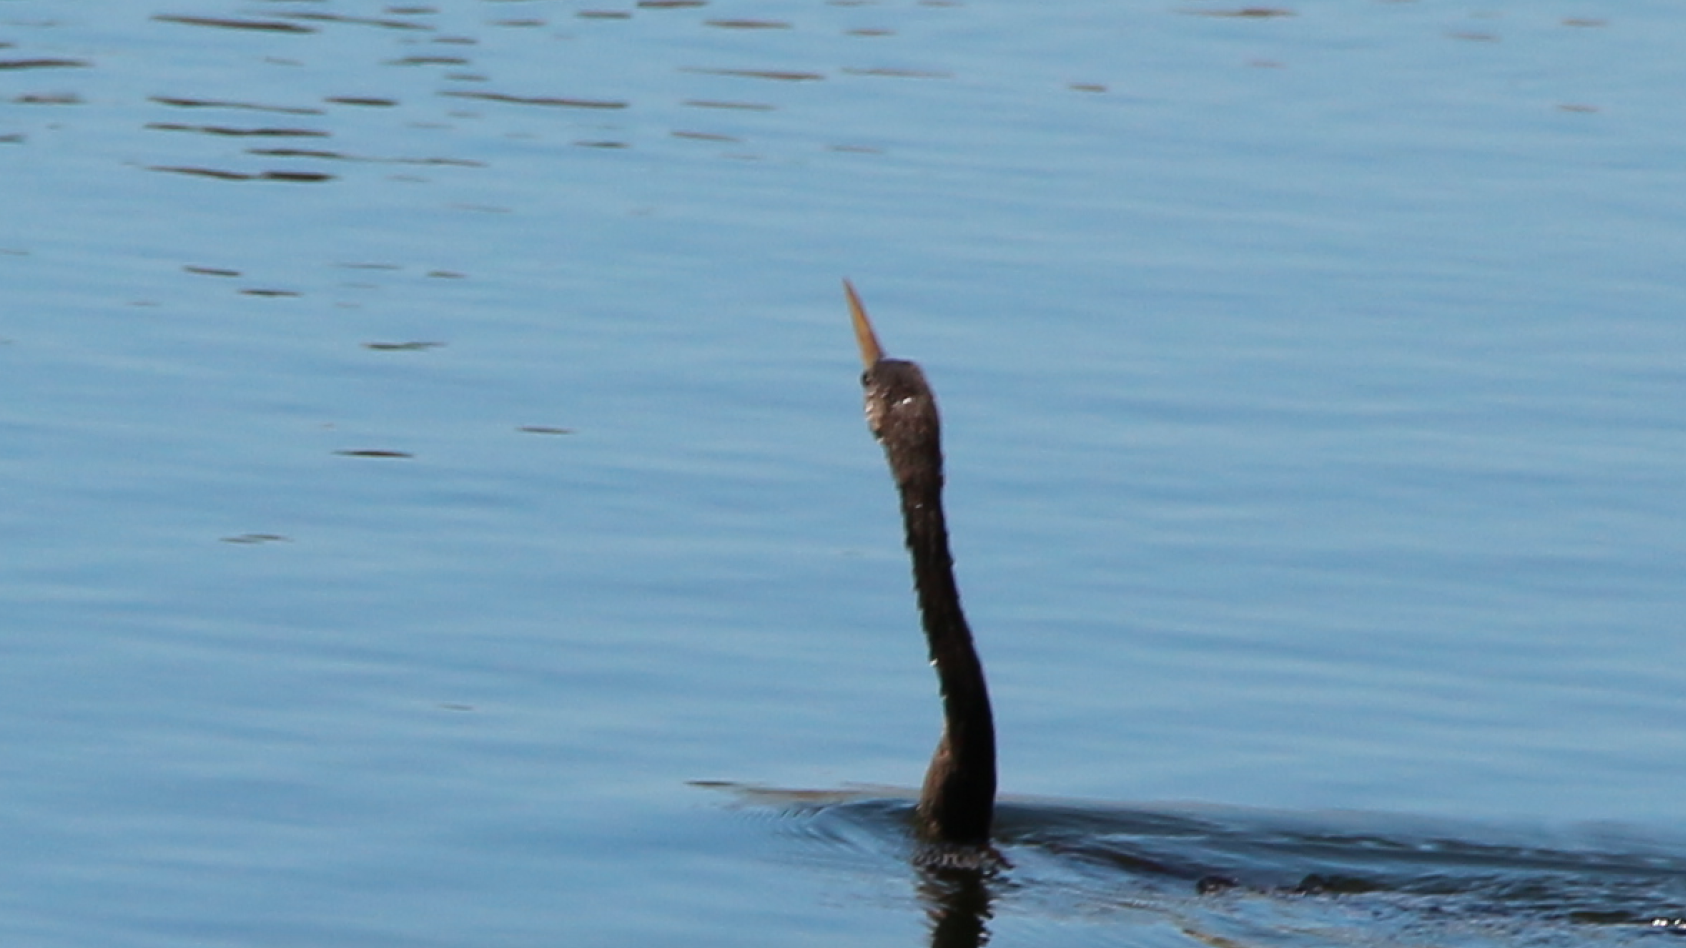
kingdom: Animalia
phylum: Chordata
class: Aves
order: Suliformes
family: Anhingidae
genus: Anhinga
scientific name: Anhinga anhinga
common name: Anhinga
